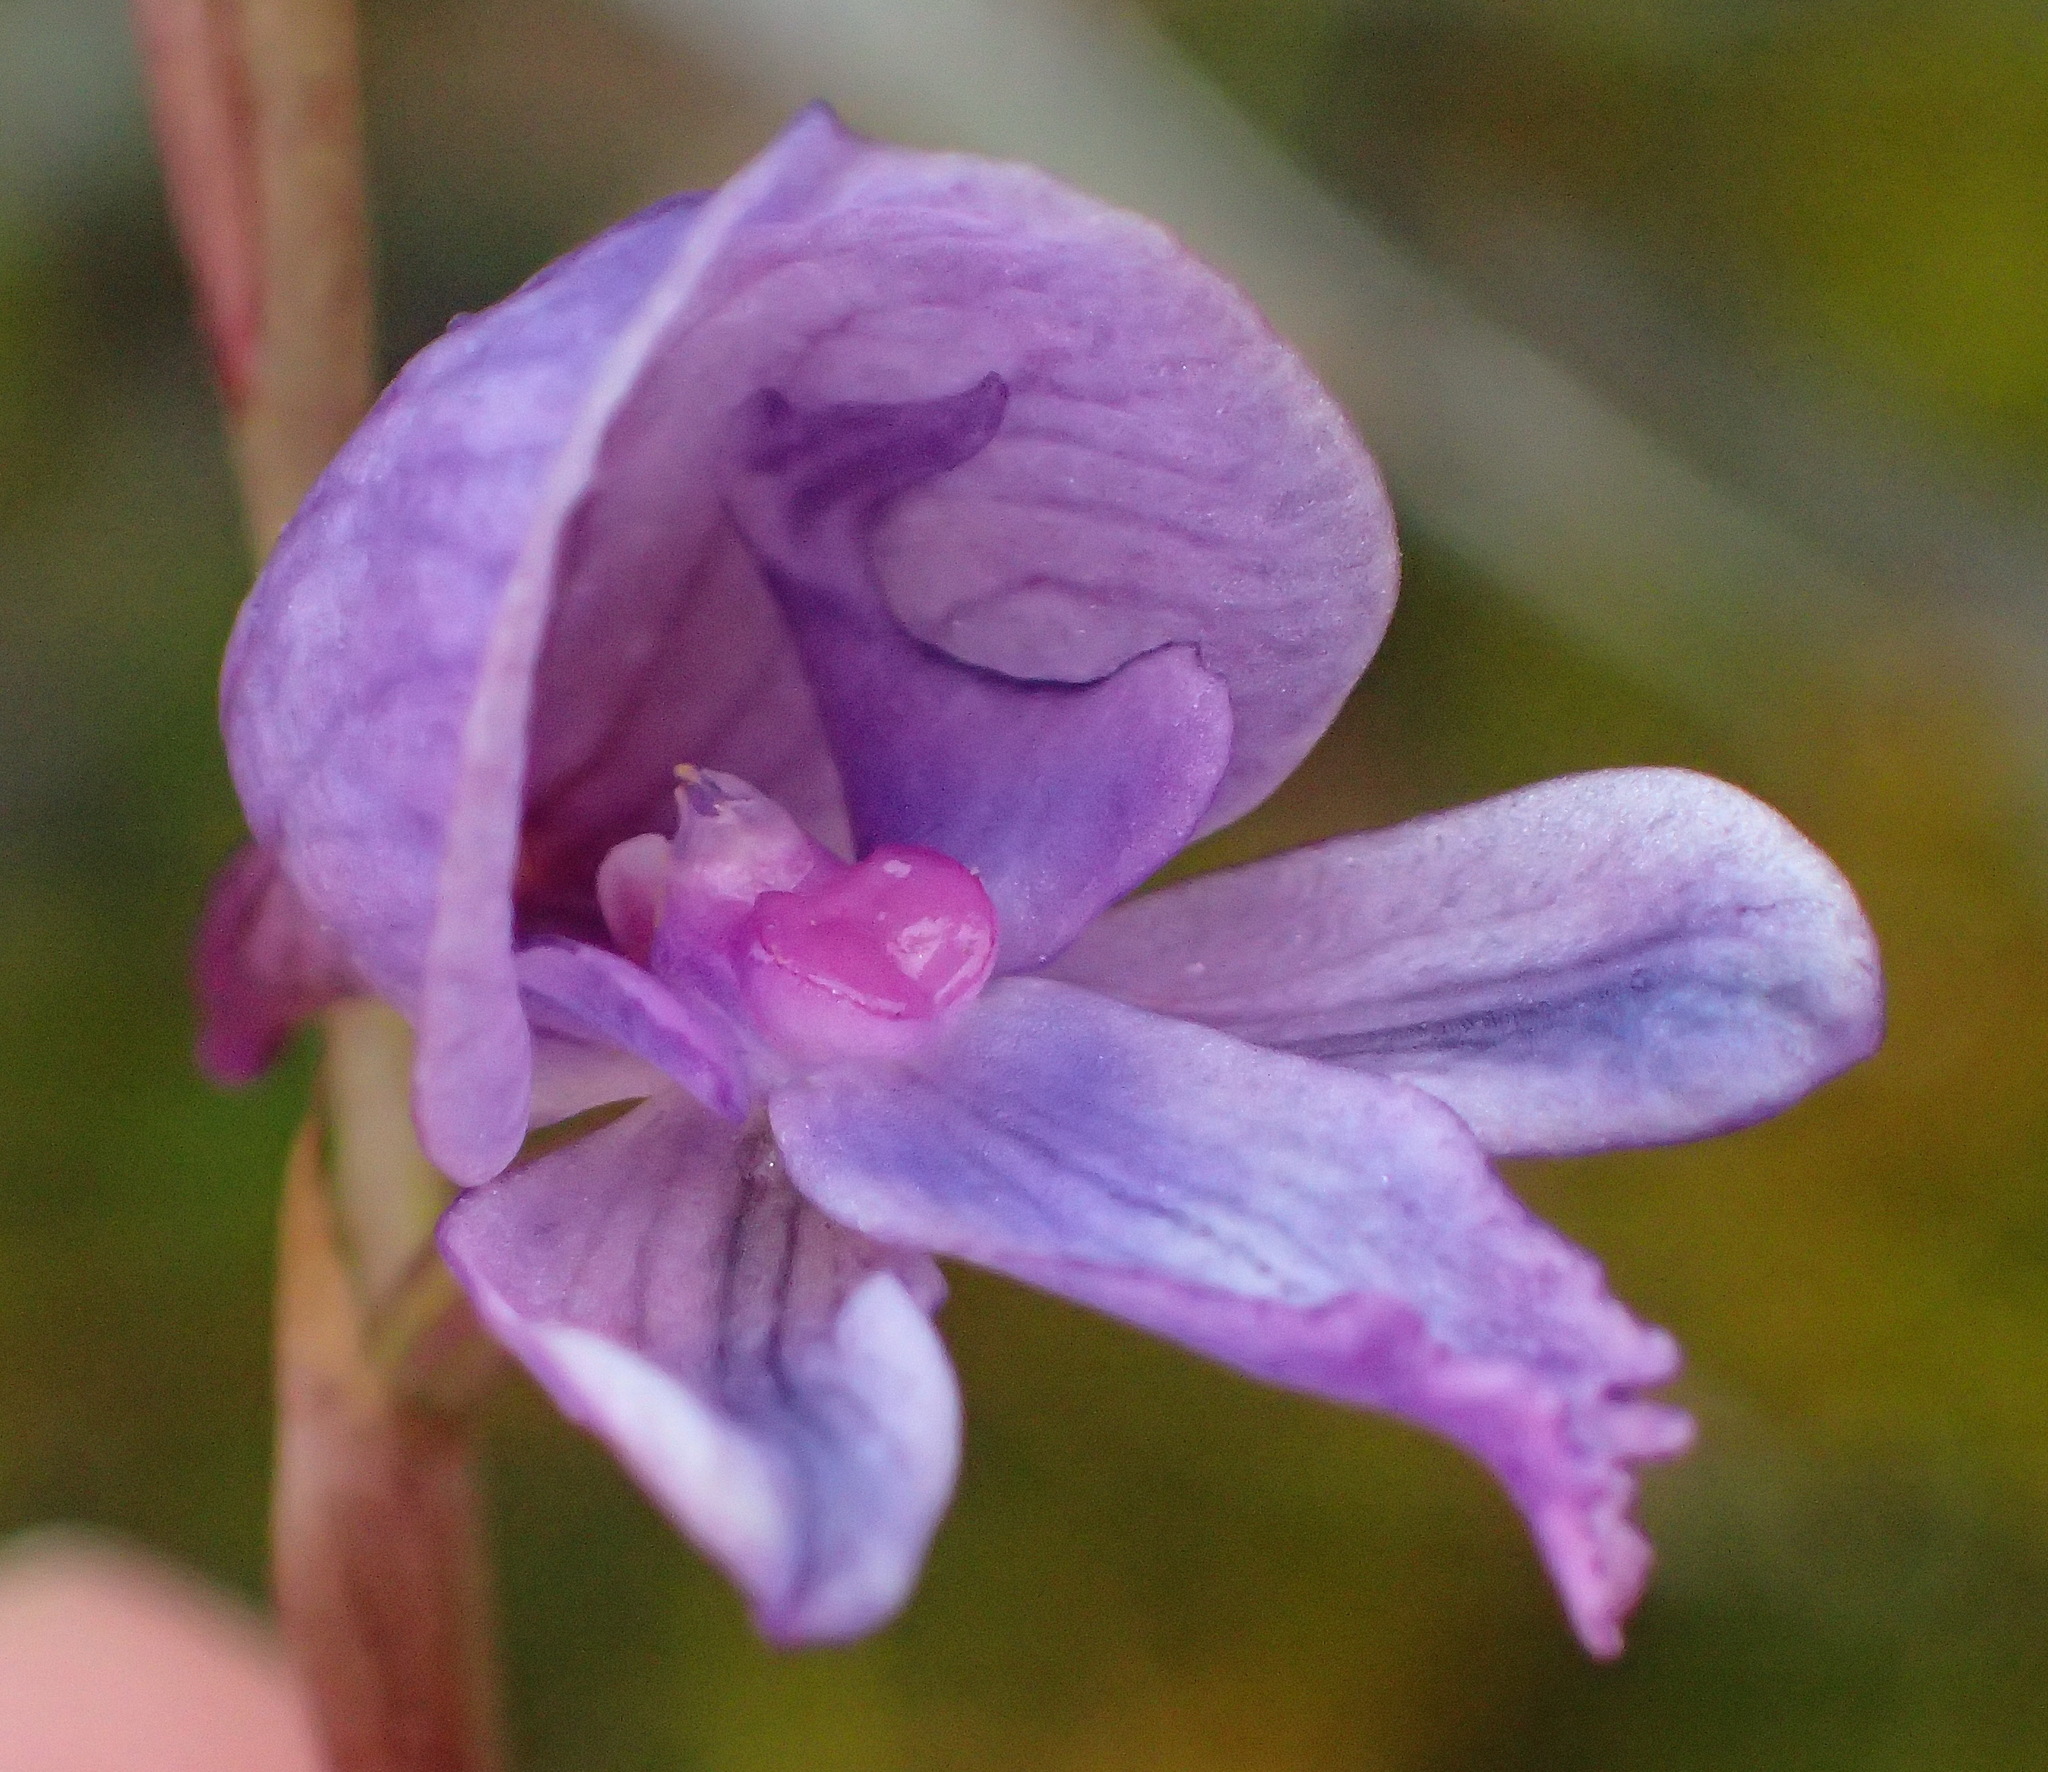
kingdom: Plantae
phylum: Tracheophyta
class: Liliopsida
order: Asparagales
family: Orchidaceae
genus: Disa
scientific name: Disa hians
